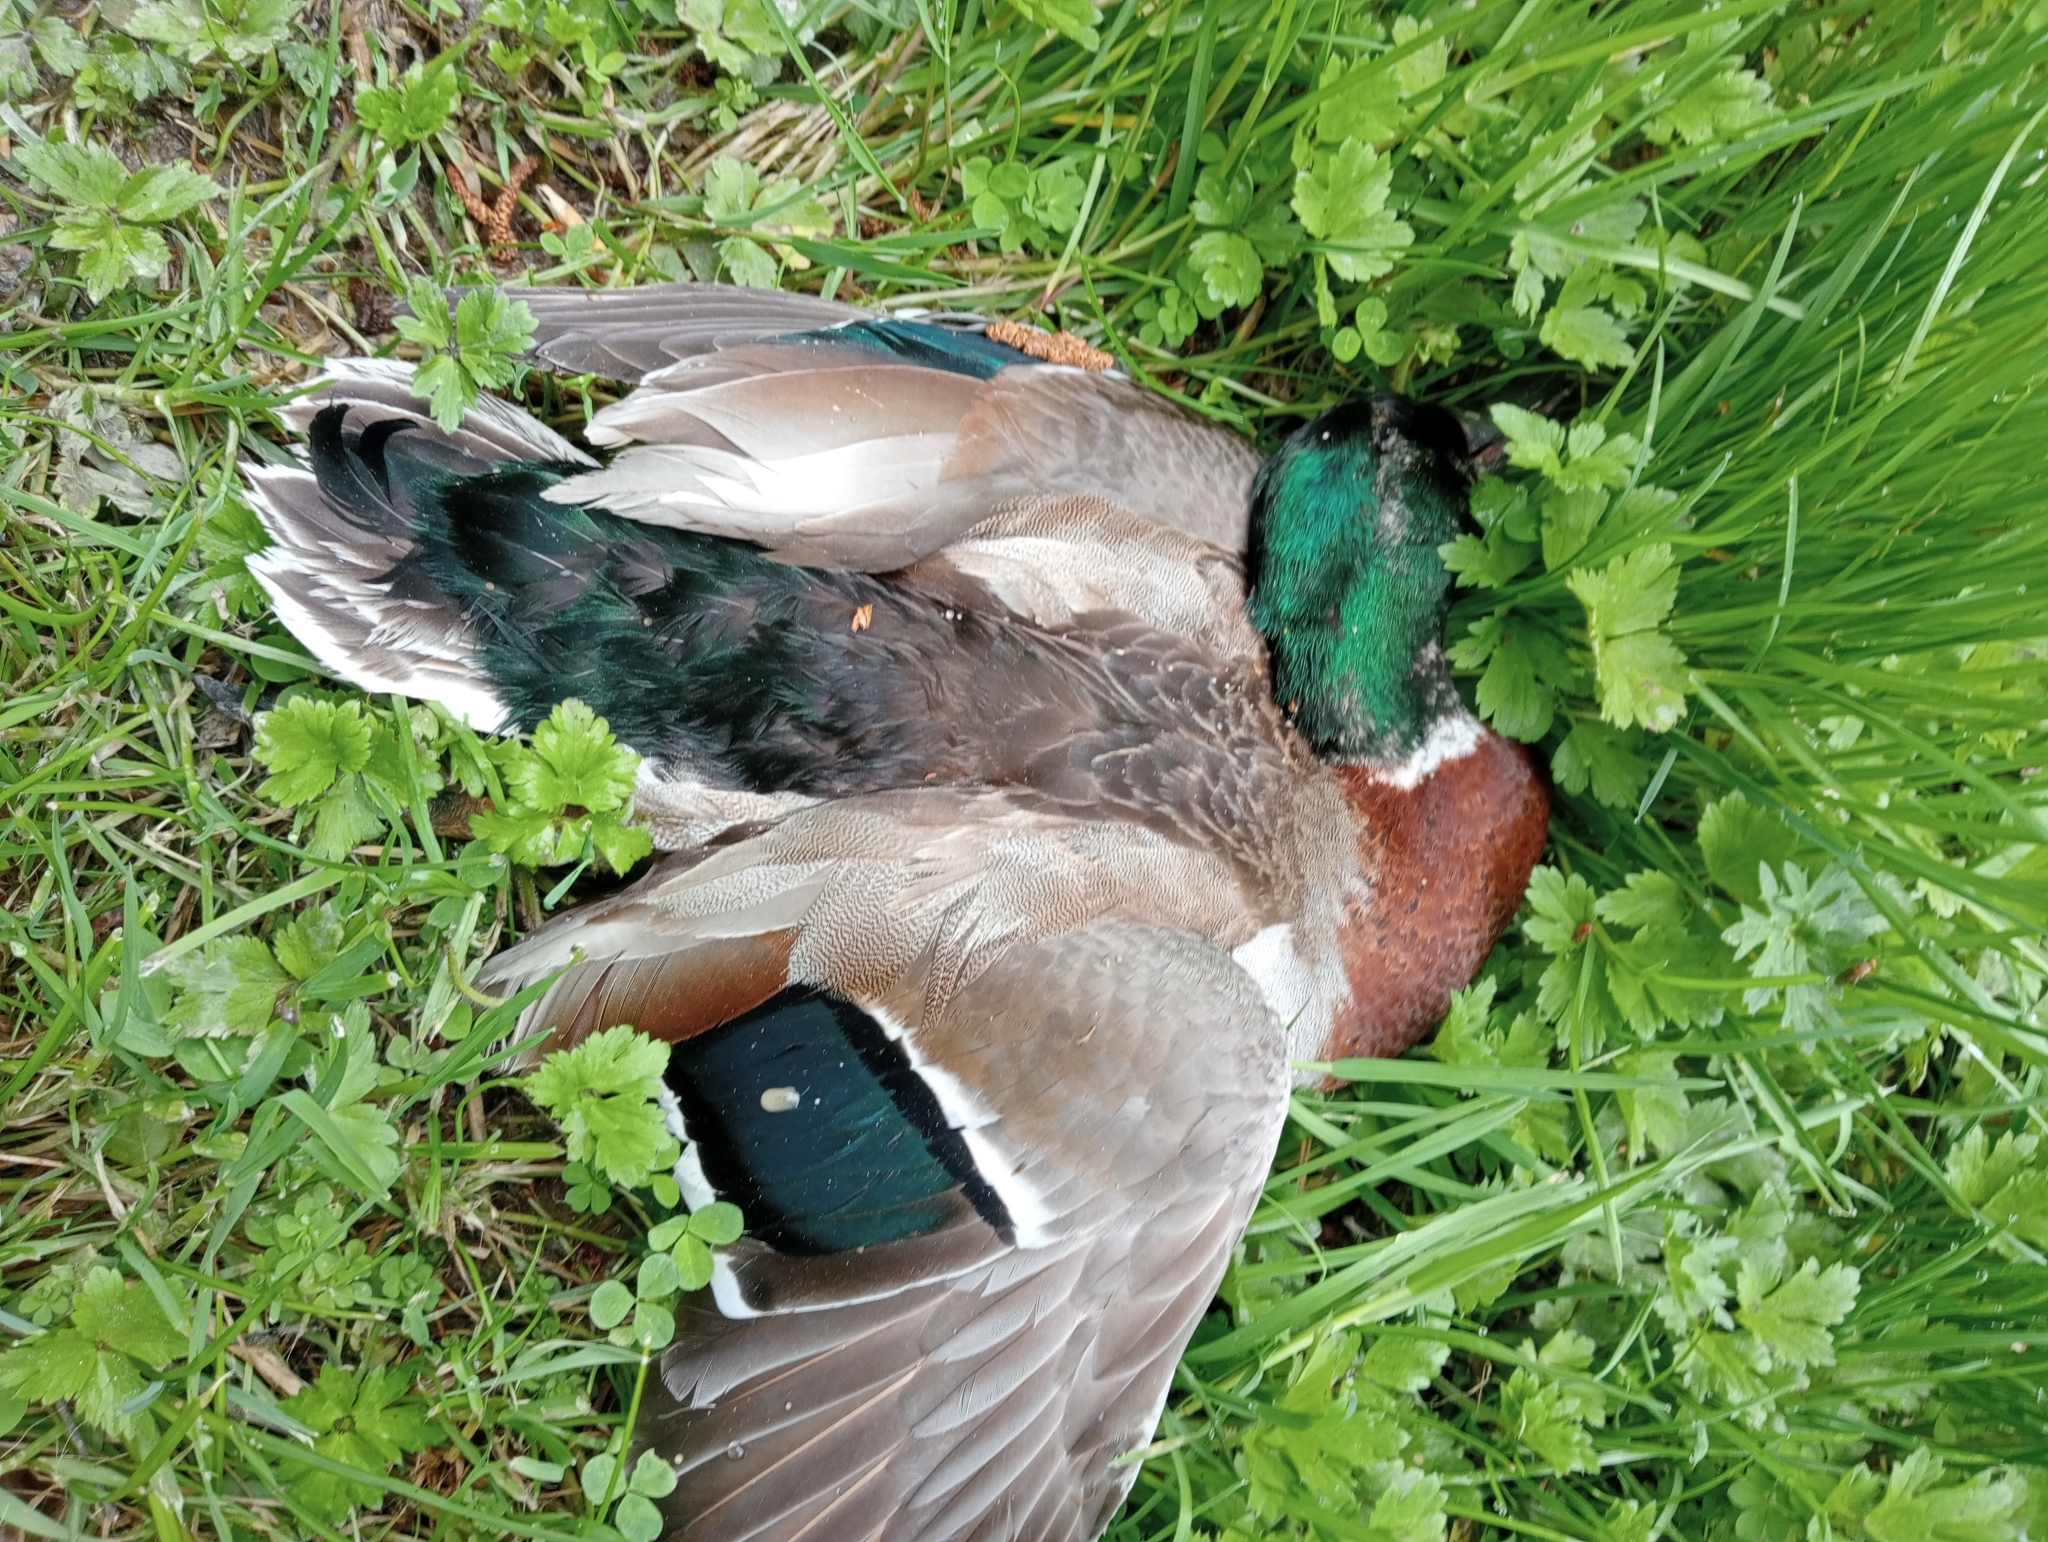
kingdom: Animalia
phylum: Chordata
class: Aves
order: Anseriformes
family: Anatidae
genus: Anas
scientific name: Anas platyrhynchos
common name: Mallard
